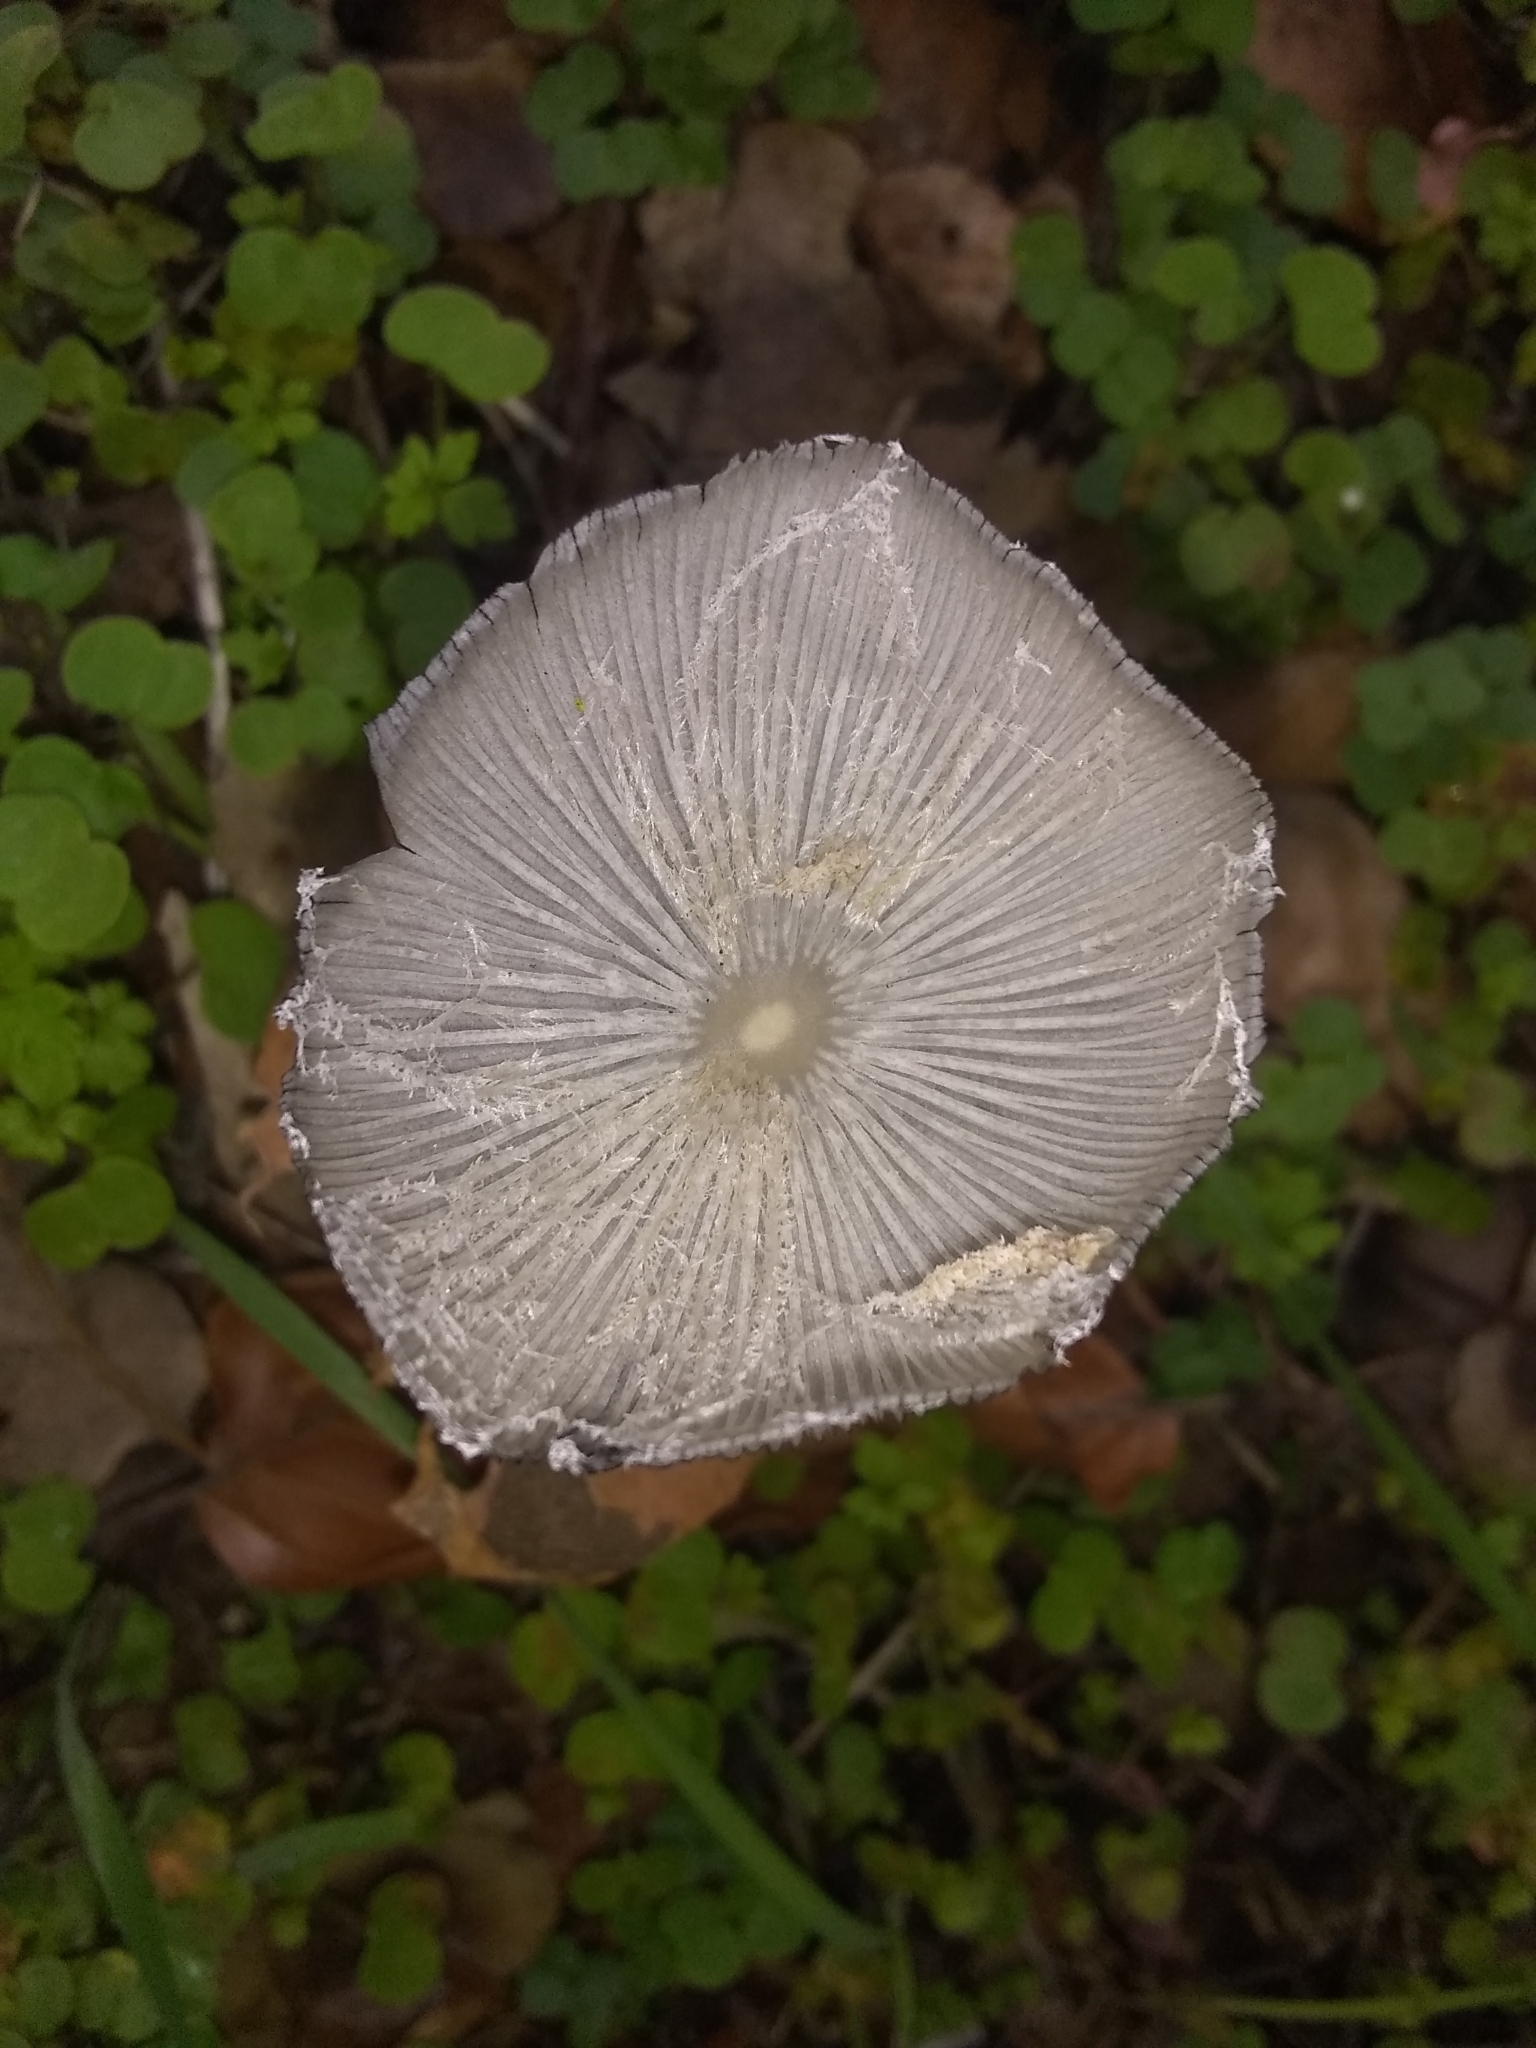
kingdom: Fungi
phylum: Basidiomycota
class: Agaricomycetes
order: Agaricales
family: Psathyrellaceae
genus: Coprinopsis
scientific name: Coprinopsis lagopus
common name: Hare'sfoot inkcap
